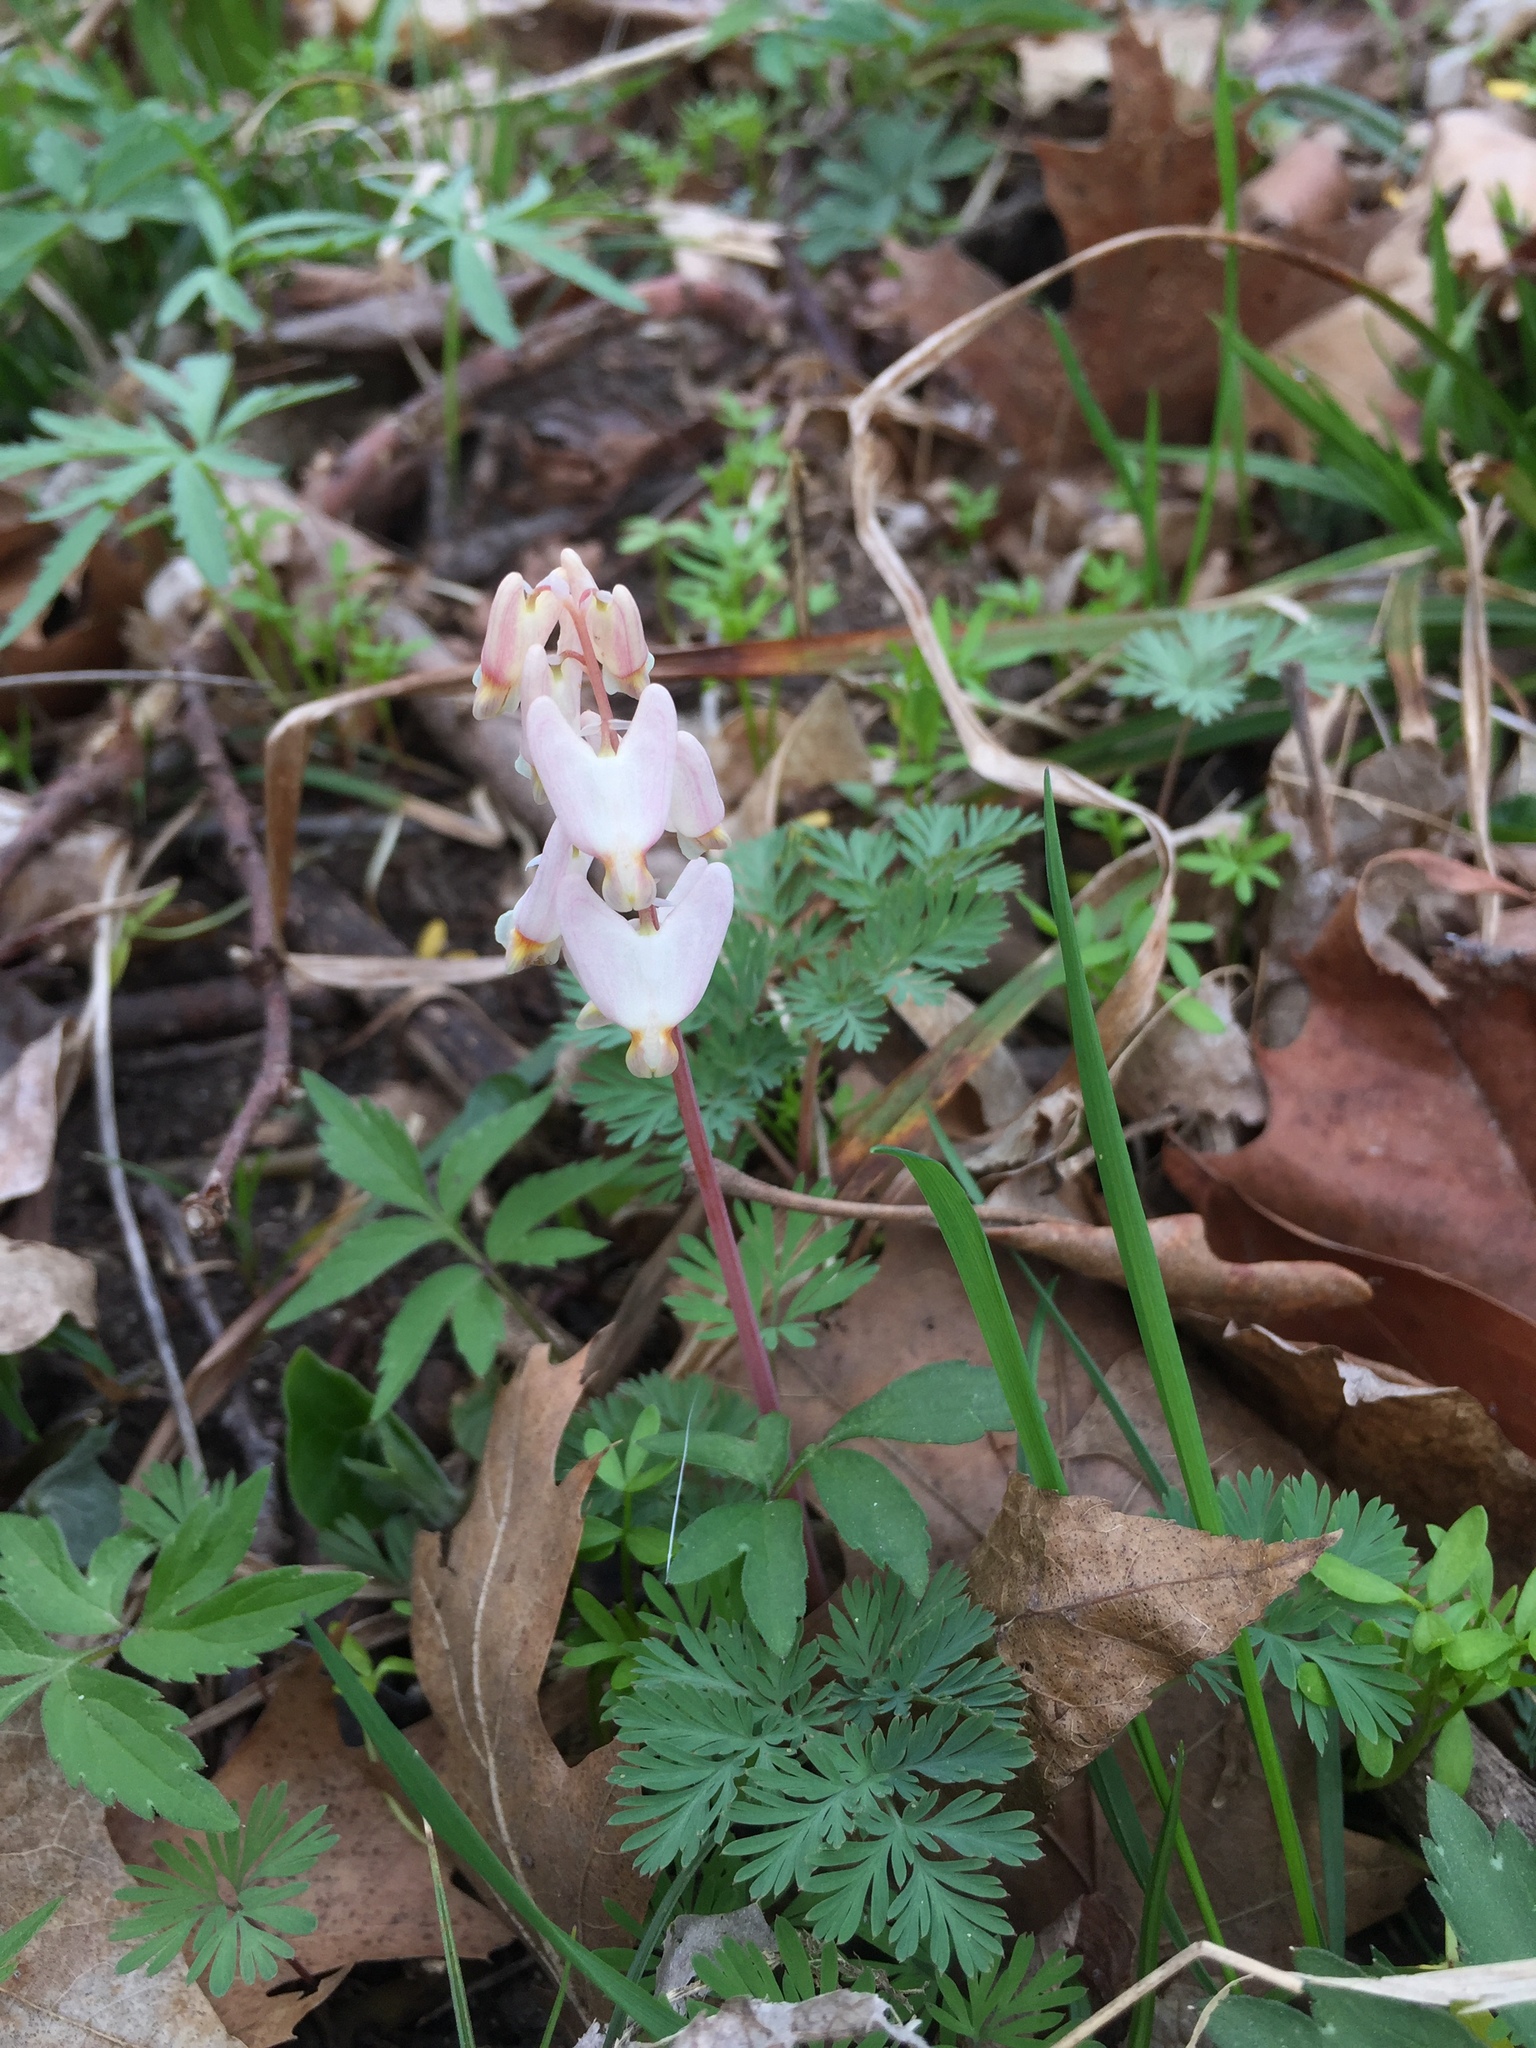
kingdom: Plantae
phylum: Tracheophyta
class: Magnoliopsida
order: Ranunculales
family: Papaveraceae
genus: Dicentra
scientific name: Dicentra cucullaria
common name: Dutchman's breeches
